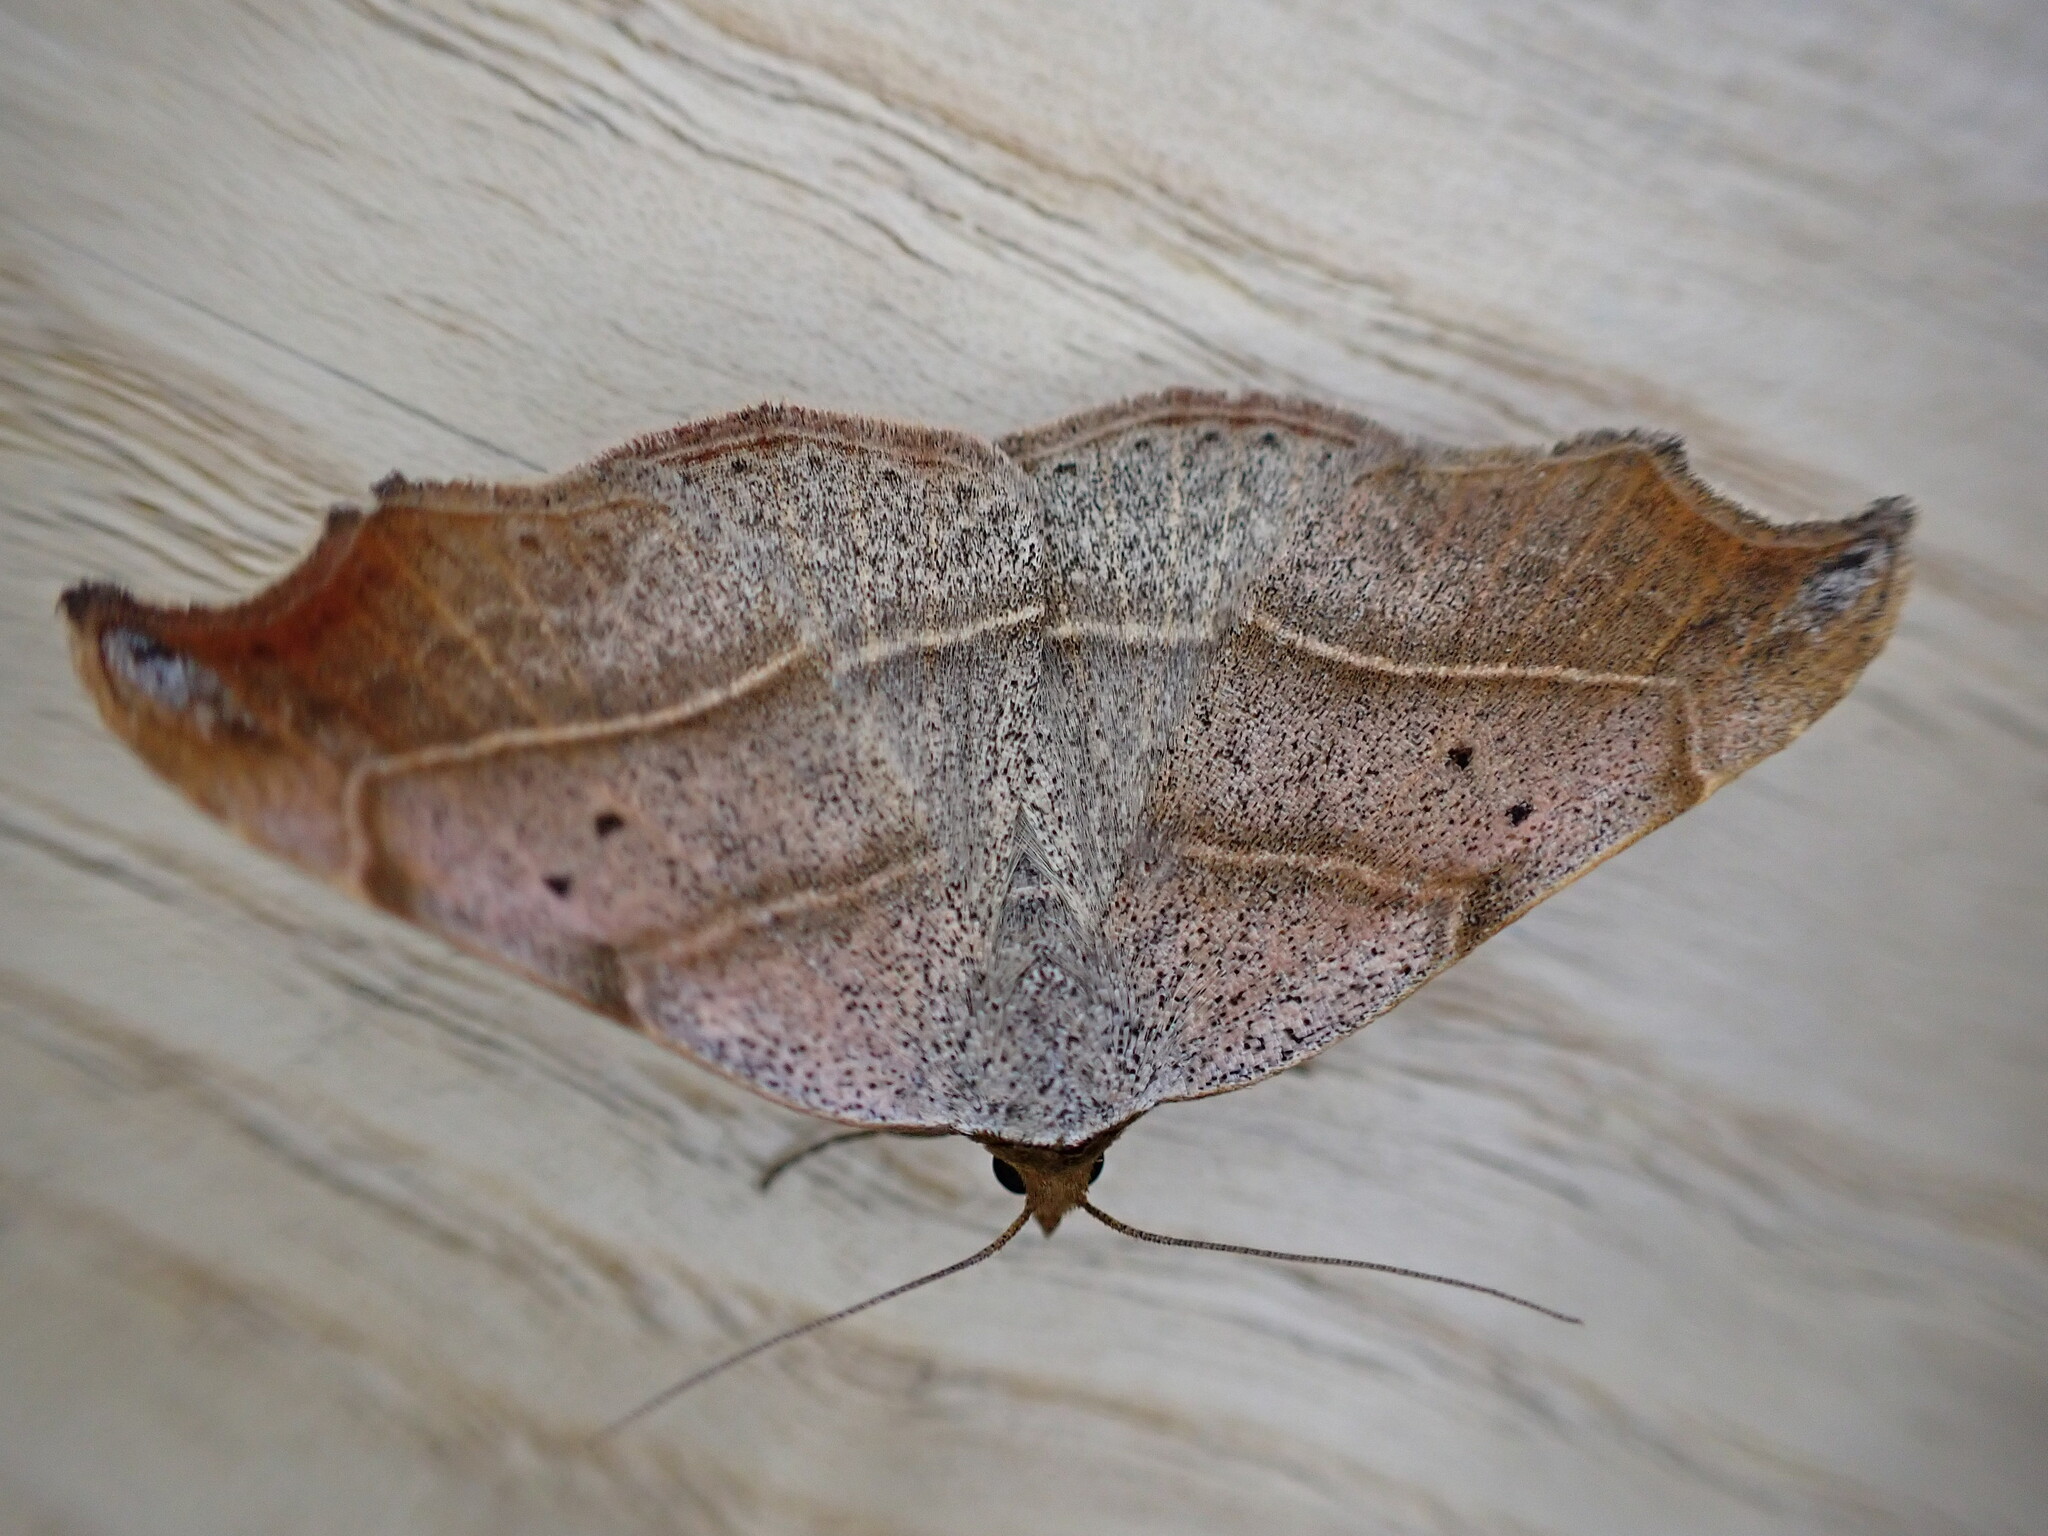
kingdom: Animalia
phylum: Arthropoda
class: Insecta
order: Lepidoptera
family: Erebidae
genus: Laspeyria
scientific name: Laspeyria flexula
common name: Beautiful hook-tip
